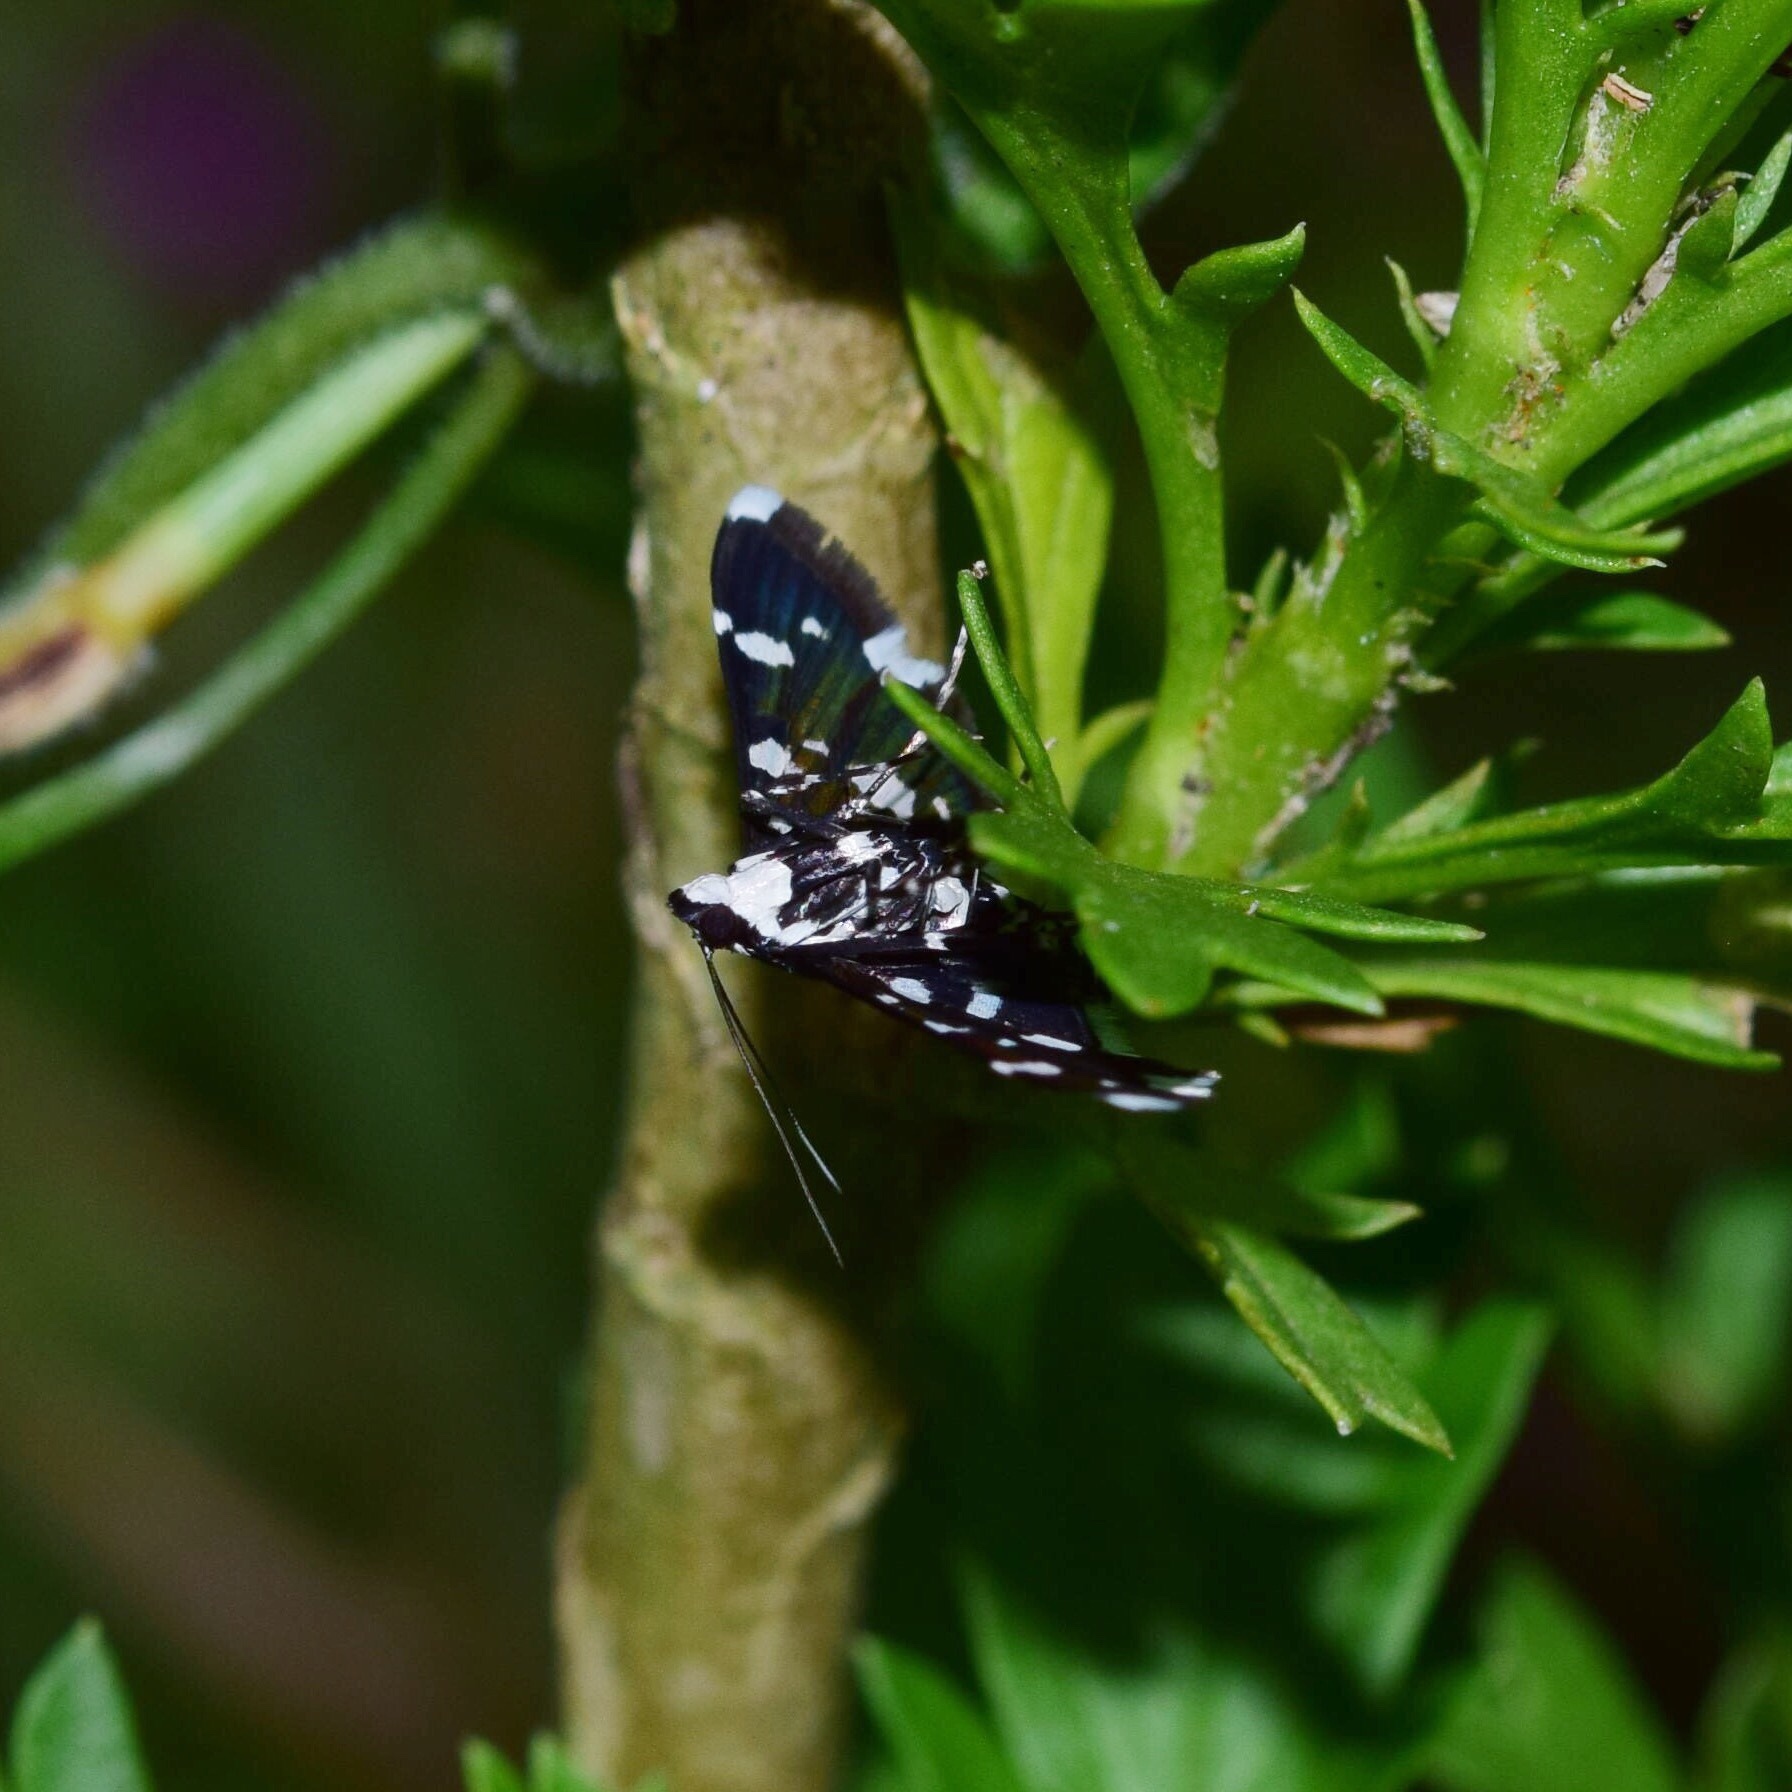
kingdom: Animalia
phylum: Arthropoda
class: Insecta
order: Lepidoptera
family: Crambidae
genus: Bocchoris
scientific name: Bocchoris inspersalis
